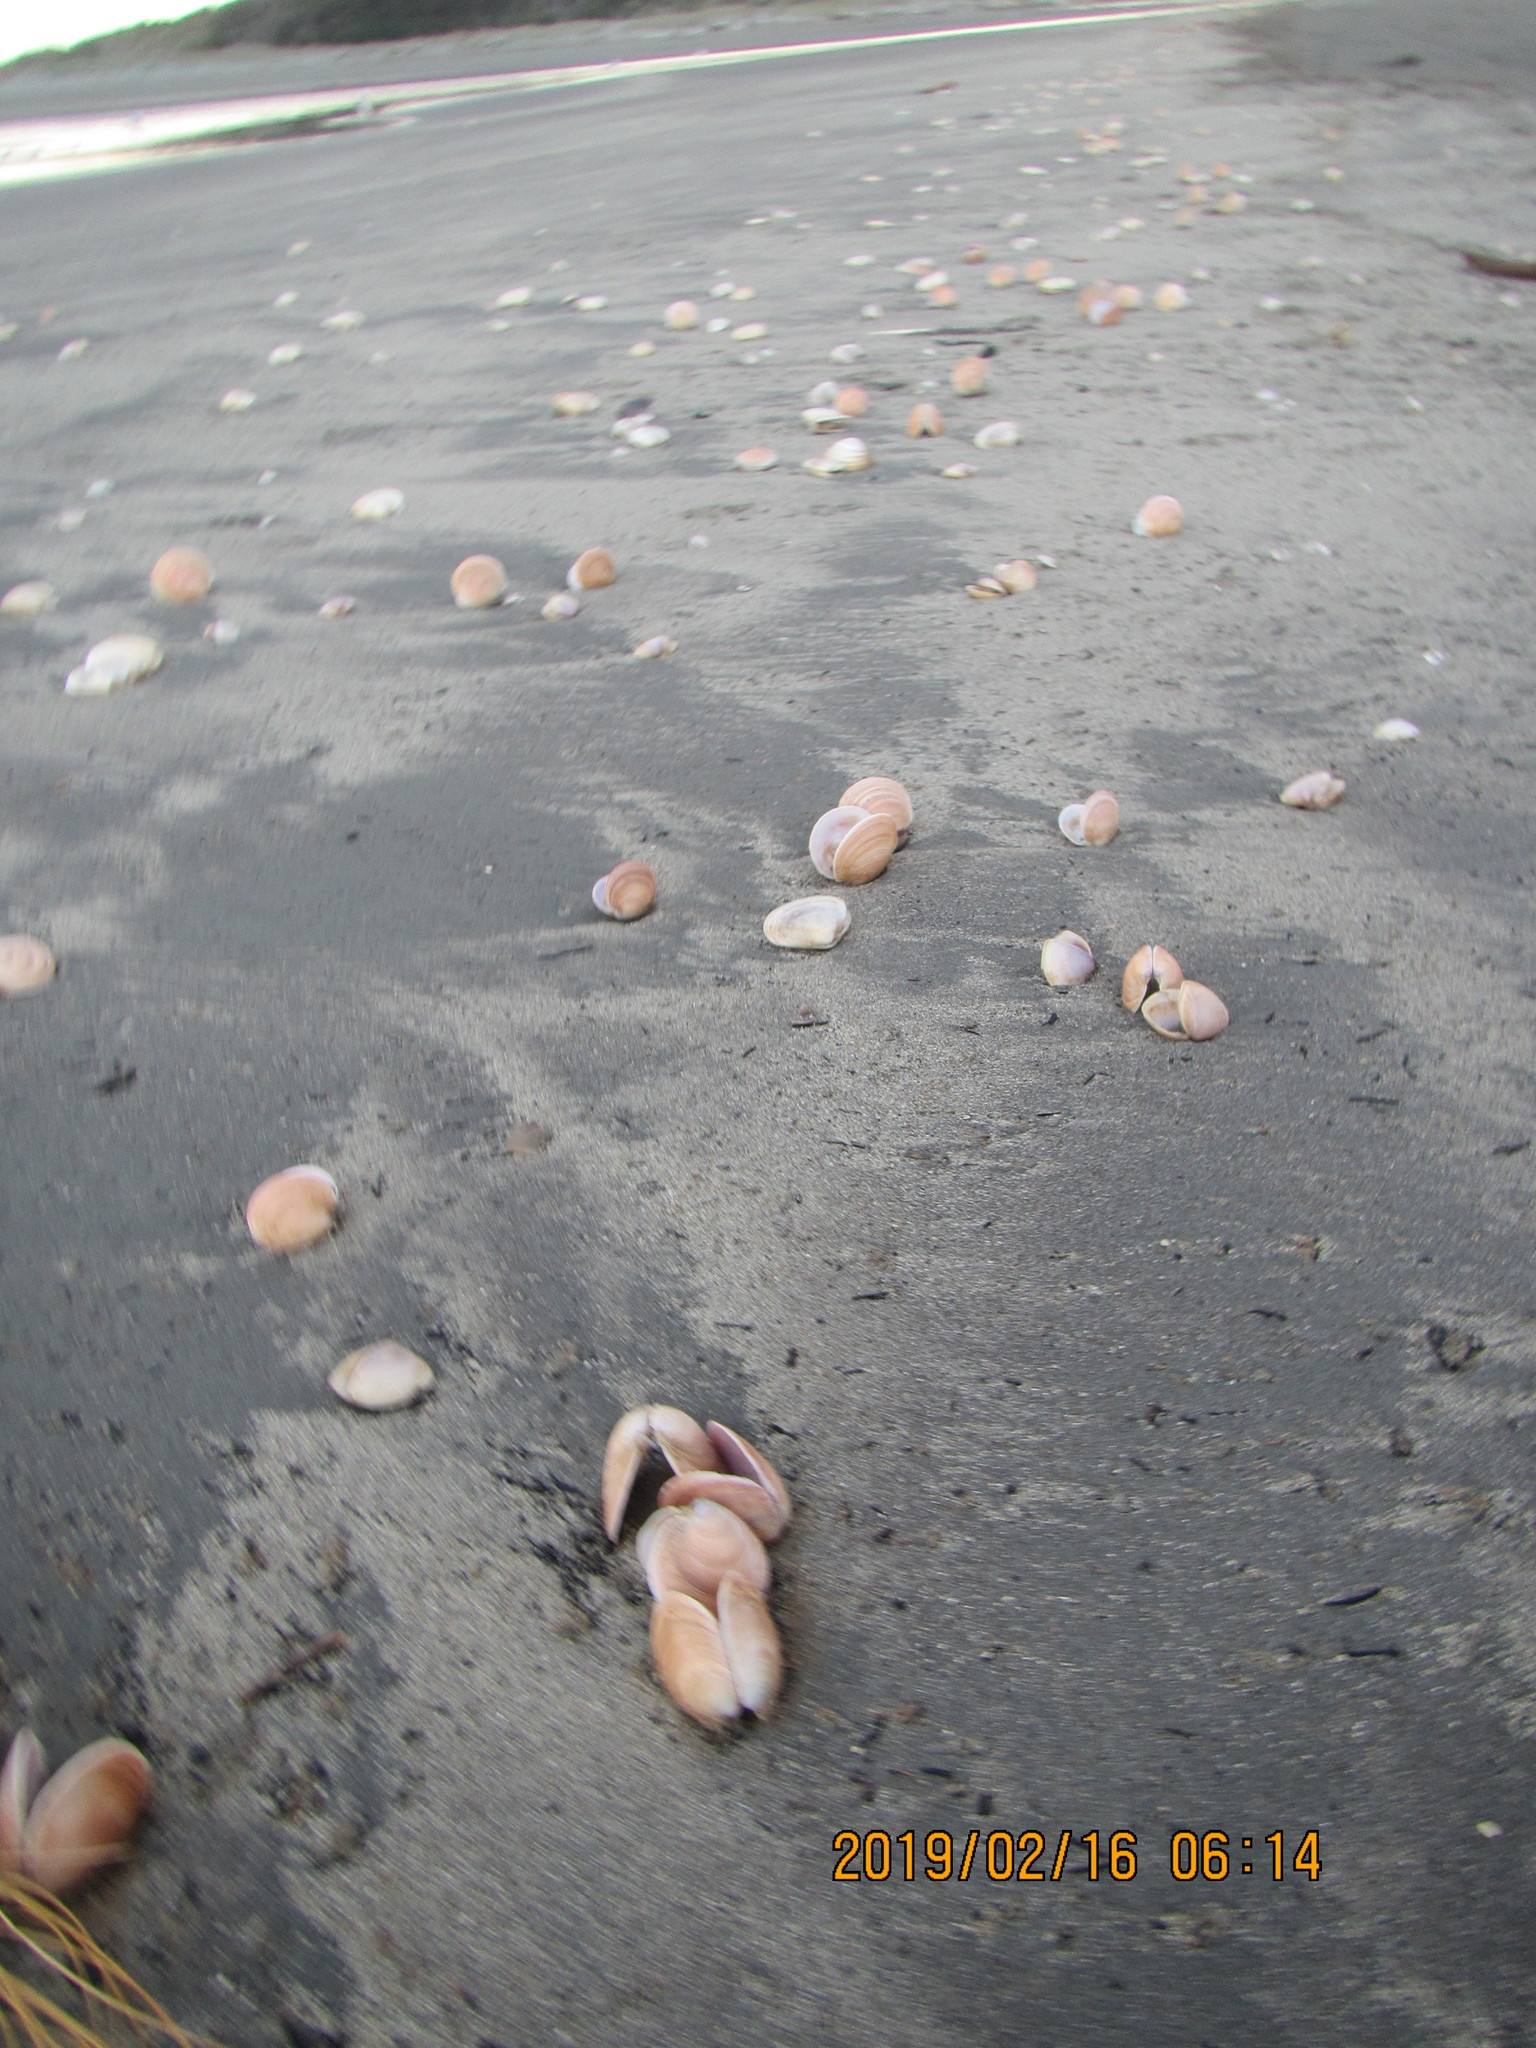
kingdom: Animalia
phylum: Mollusca
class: Bivalvia
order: Venerida
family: Veneridae
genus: Dosinia
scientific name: Dosinia anus
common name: Old-woman dosinia
